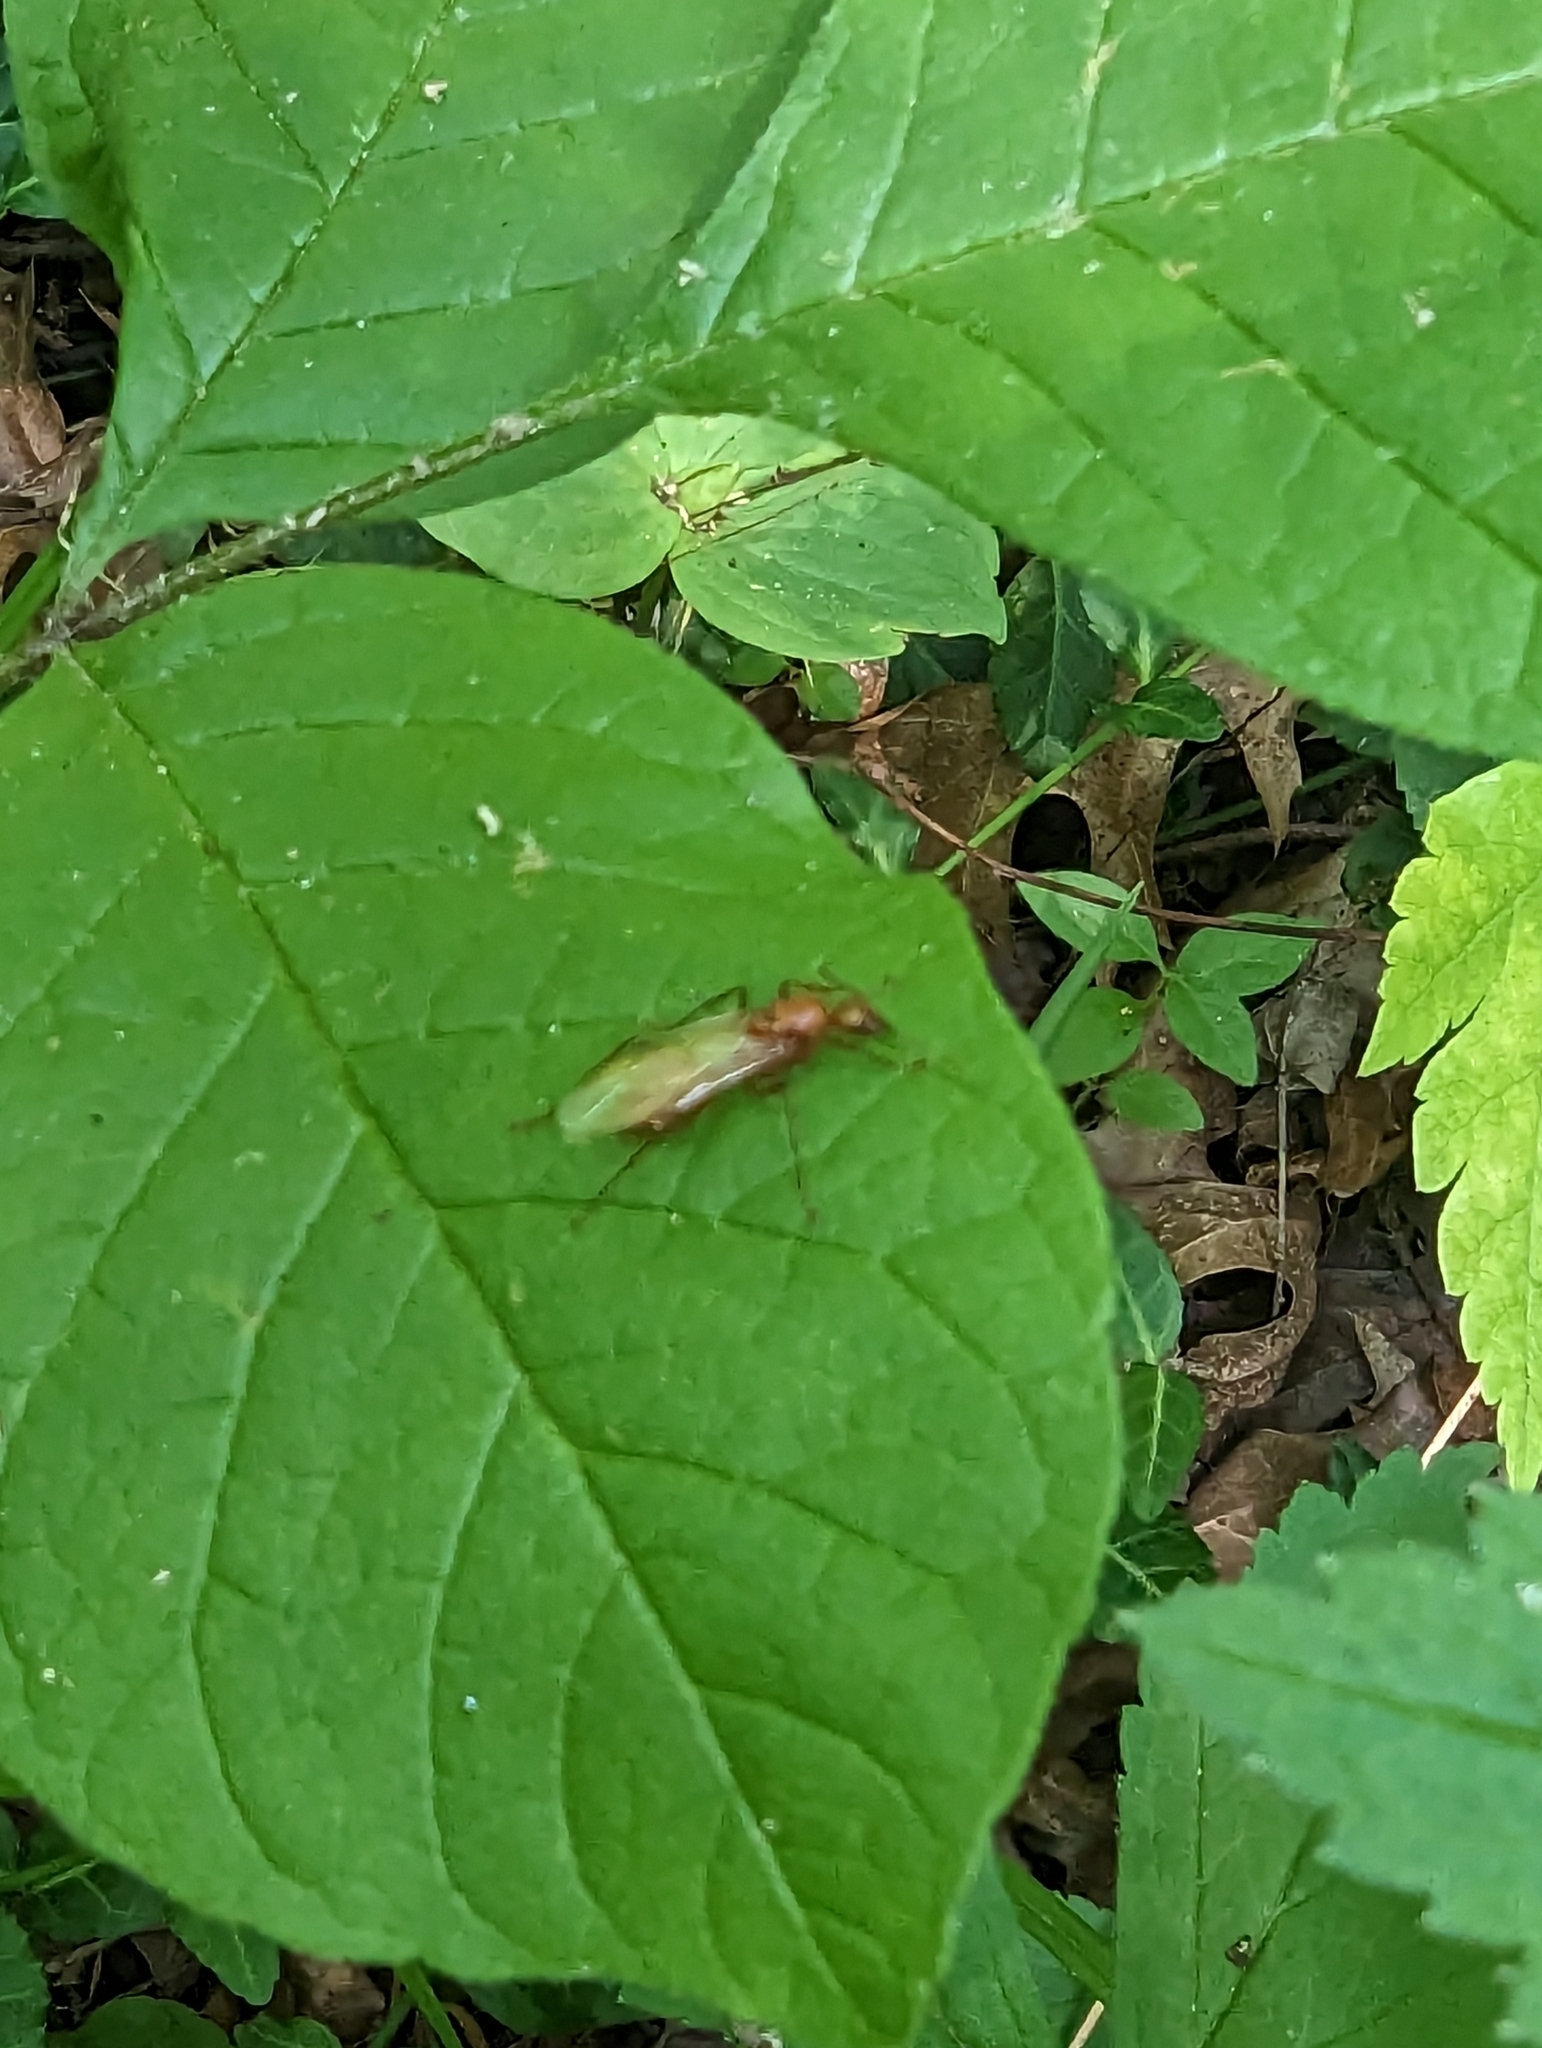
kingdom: Animalia
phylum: Arthropoda
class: Insecta
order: Hymenoptera
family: Formicidae
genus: Camponotus
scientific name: Camponotus castaneus
